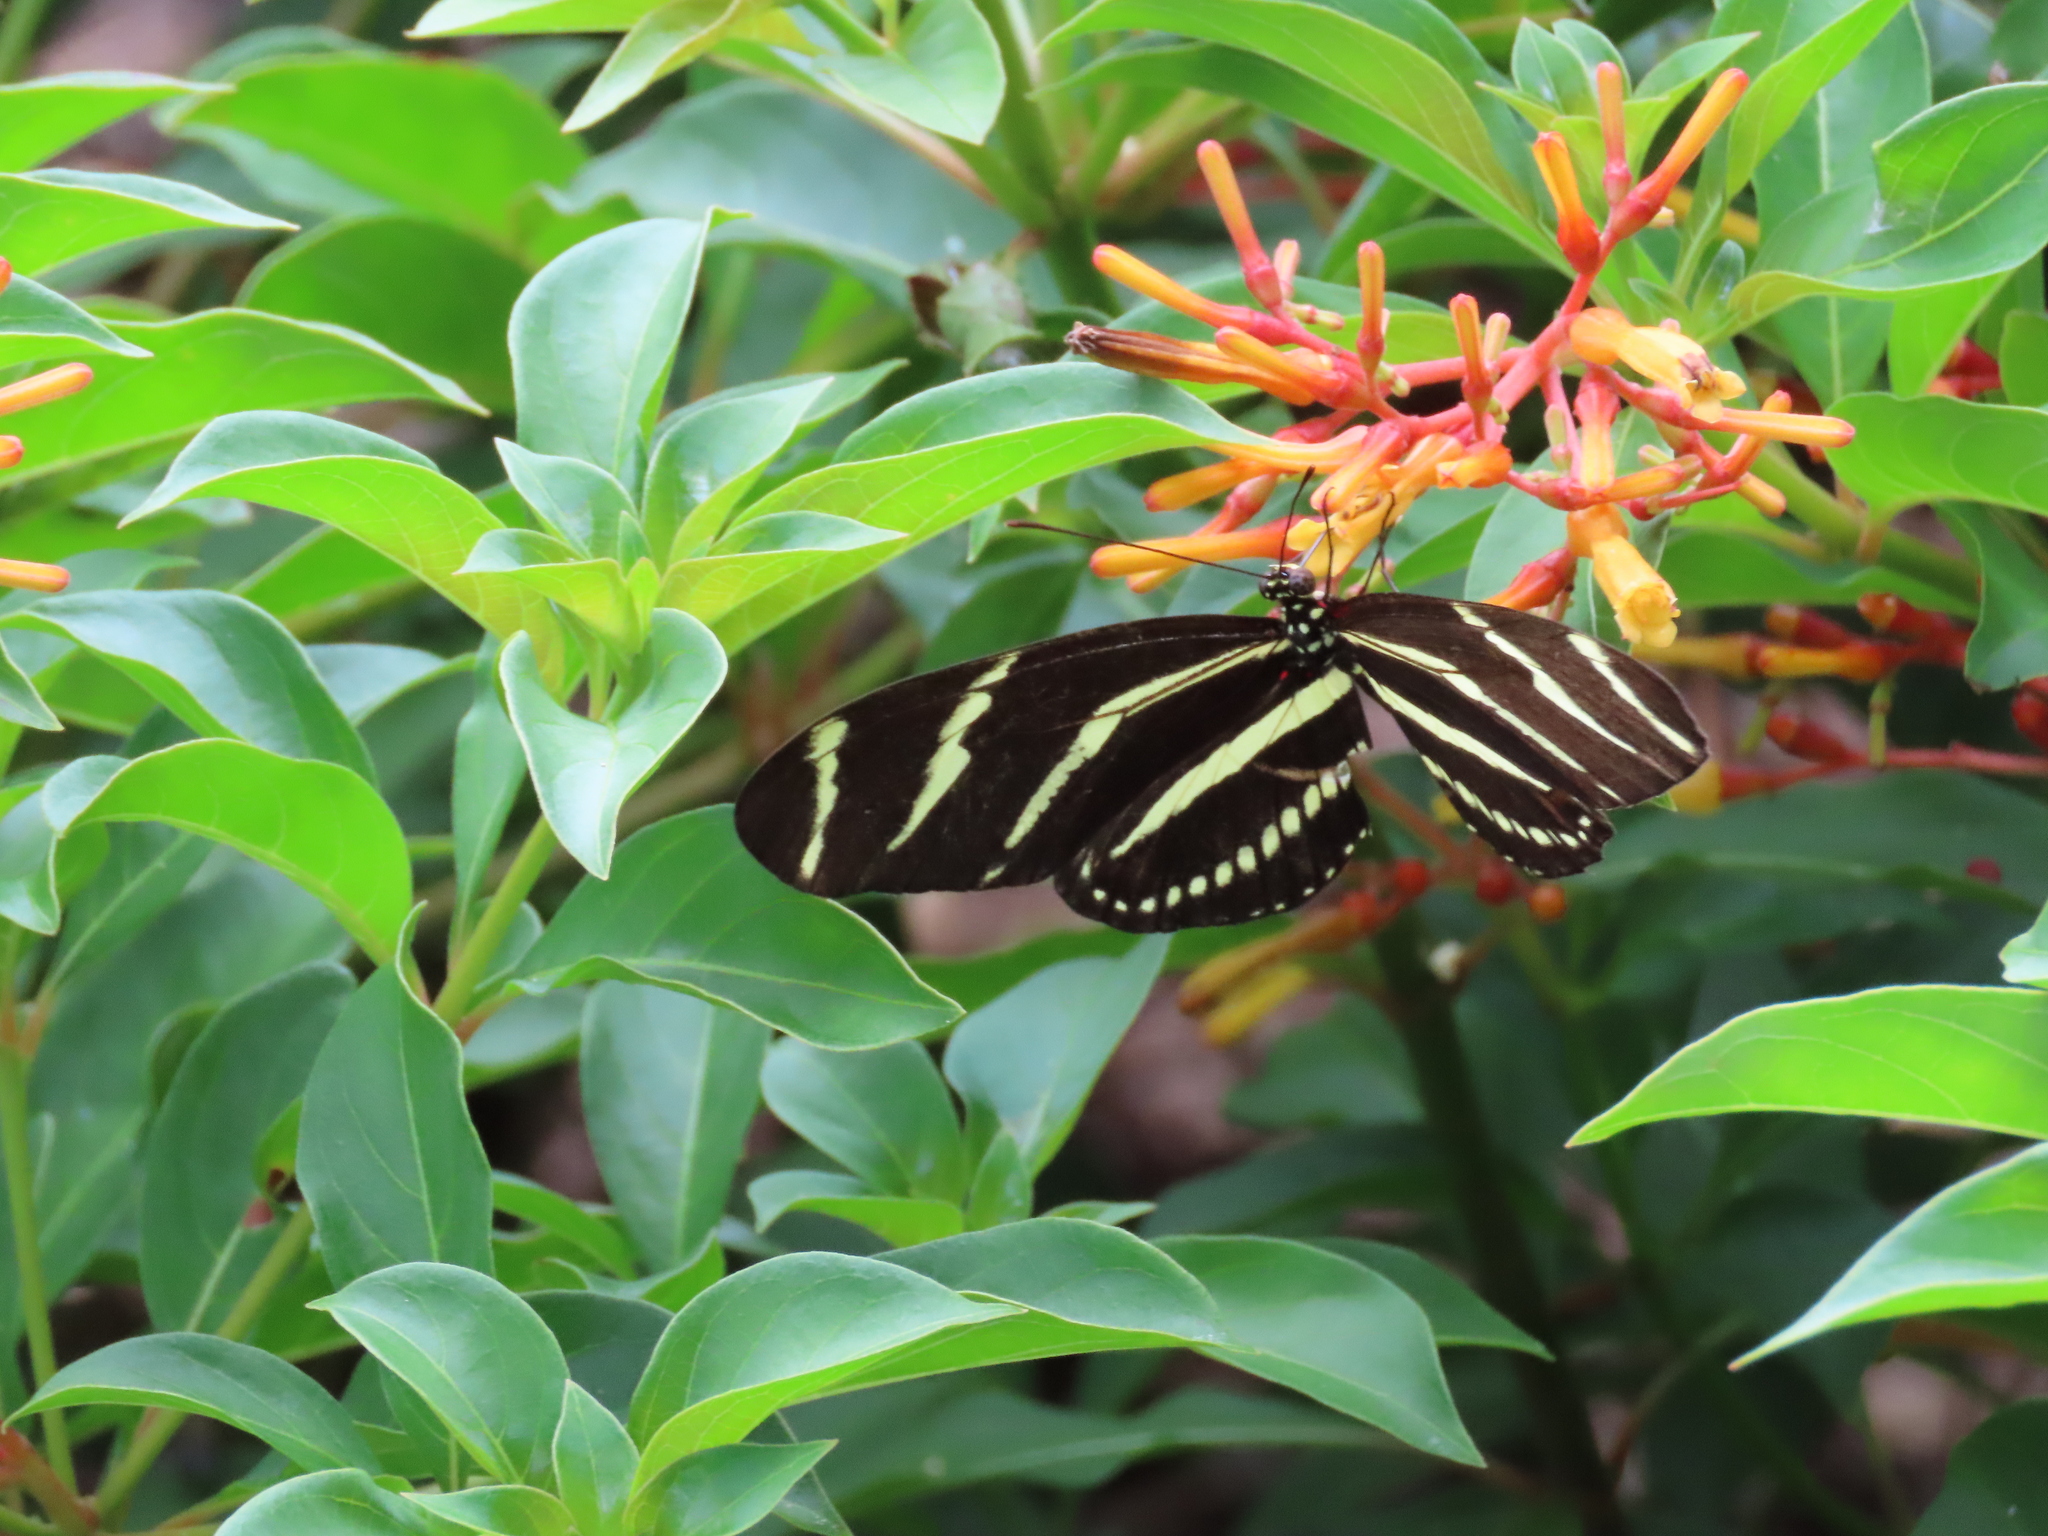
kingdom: Animalia
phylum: Arthropoda
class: Insecta
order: Lepidoptera
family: Nymphalidae
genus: Heliconius
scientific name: Heliconius charithonia
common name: Zebra long wing
